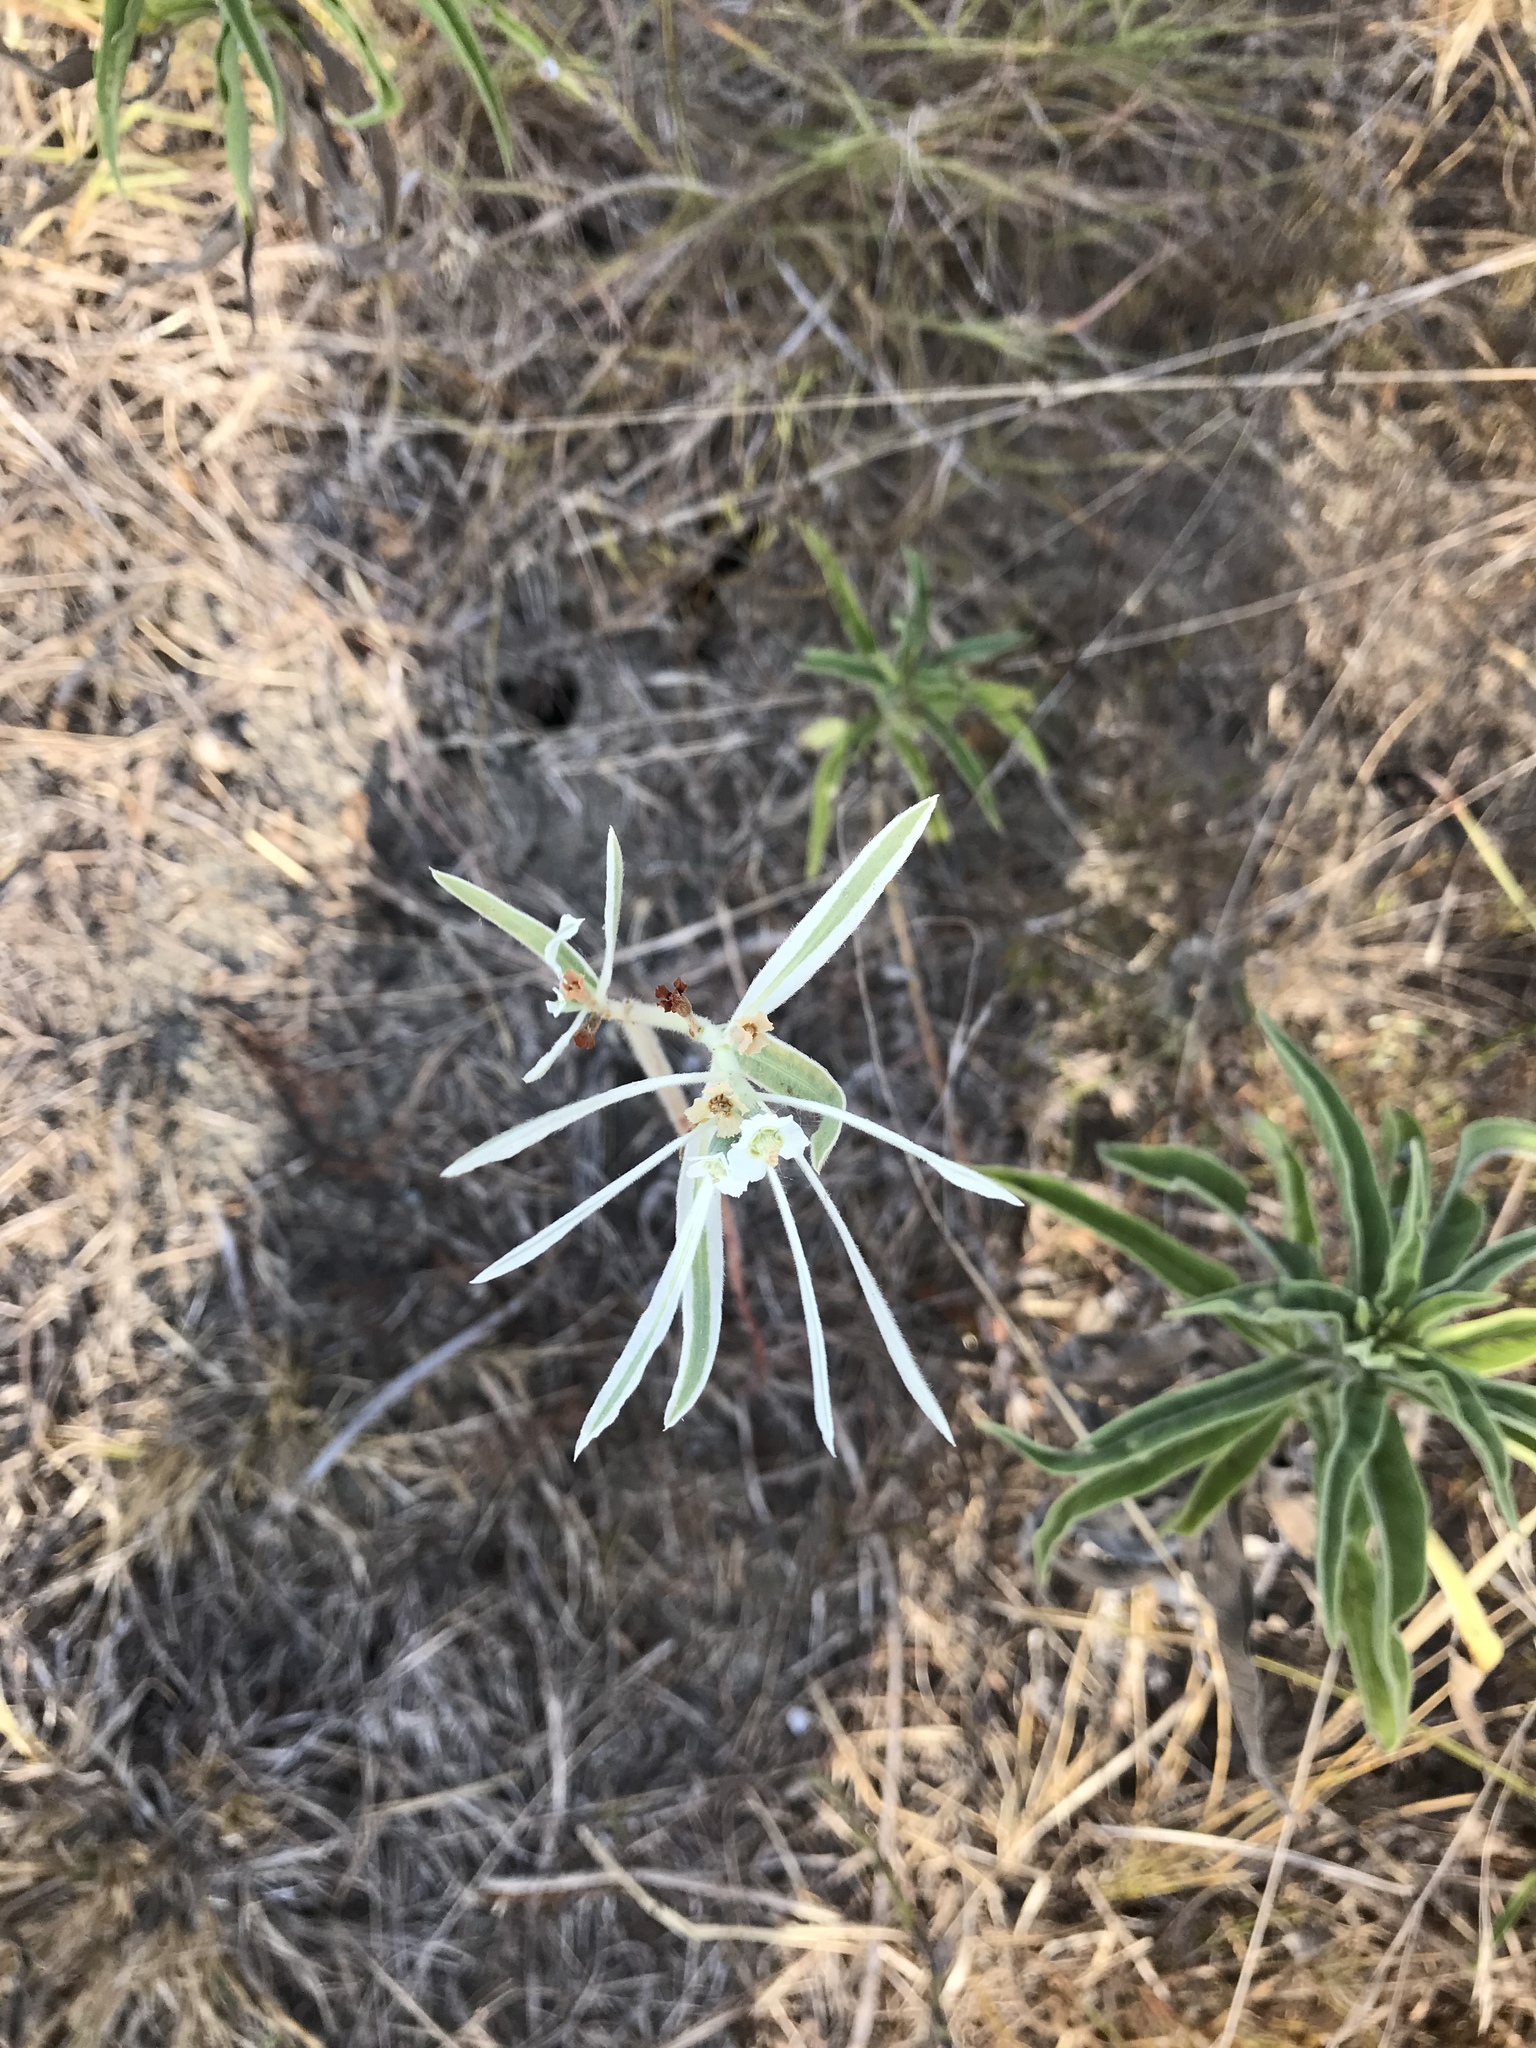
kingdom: Plantae
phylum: Tracheophyta
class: Magnoliopsida
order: Malpighiales
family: Euphorbiaceae
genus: Euphorbia
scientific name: Euphorbia bicolor
